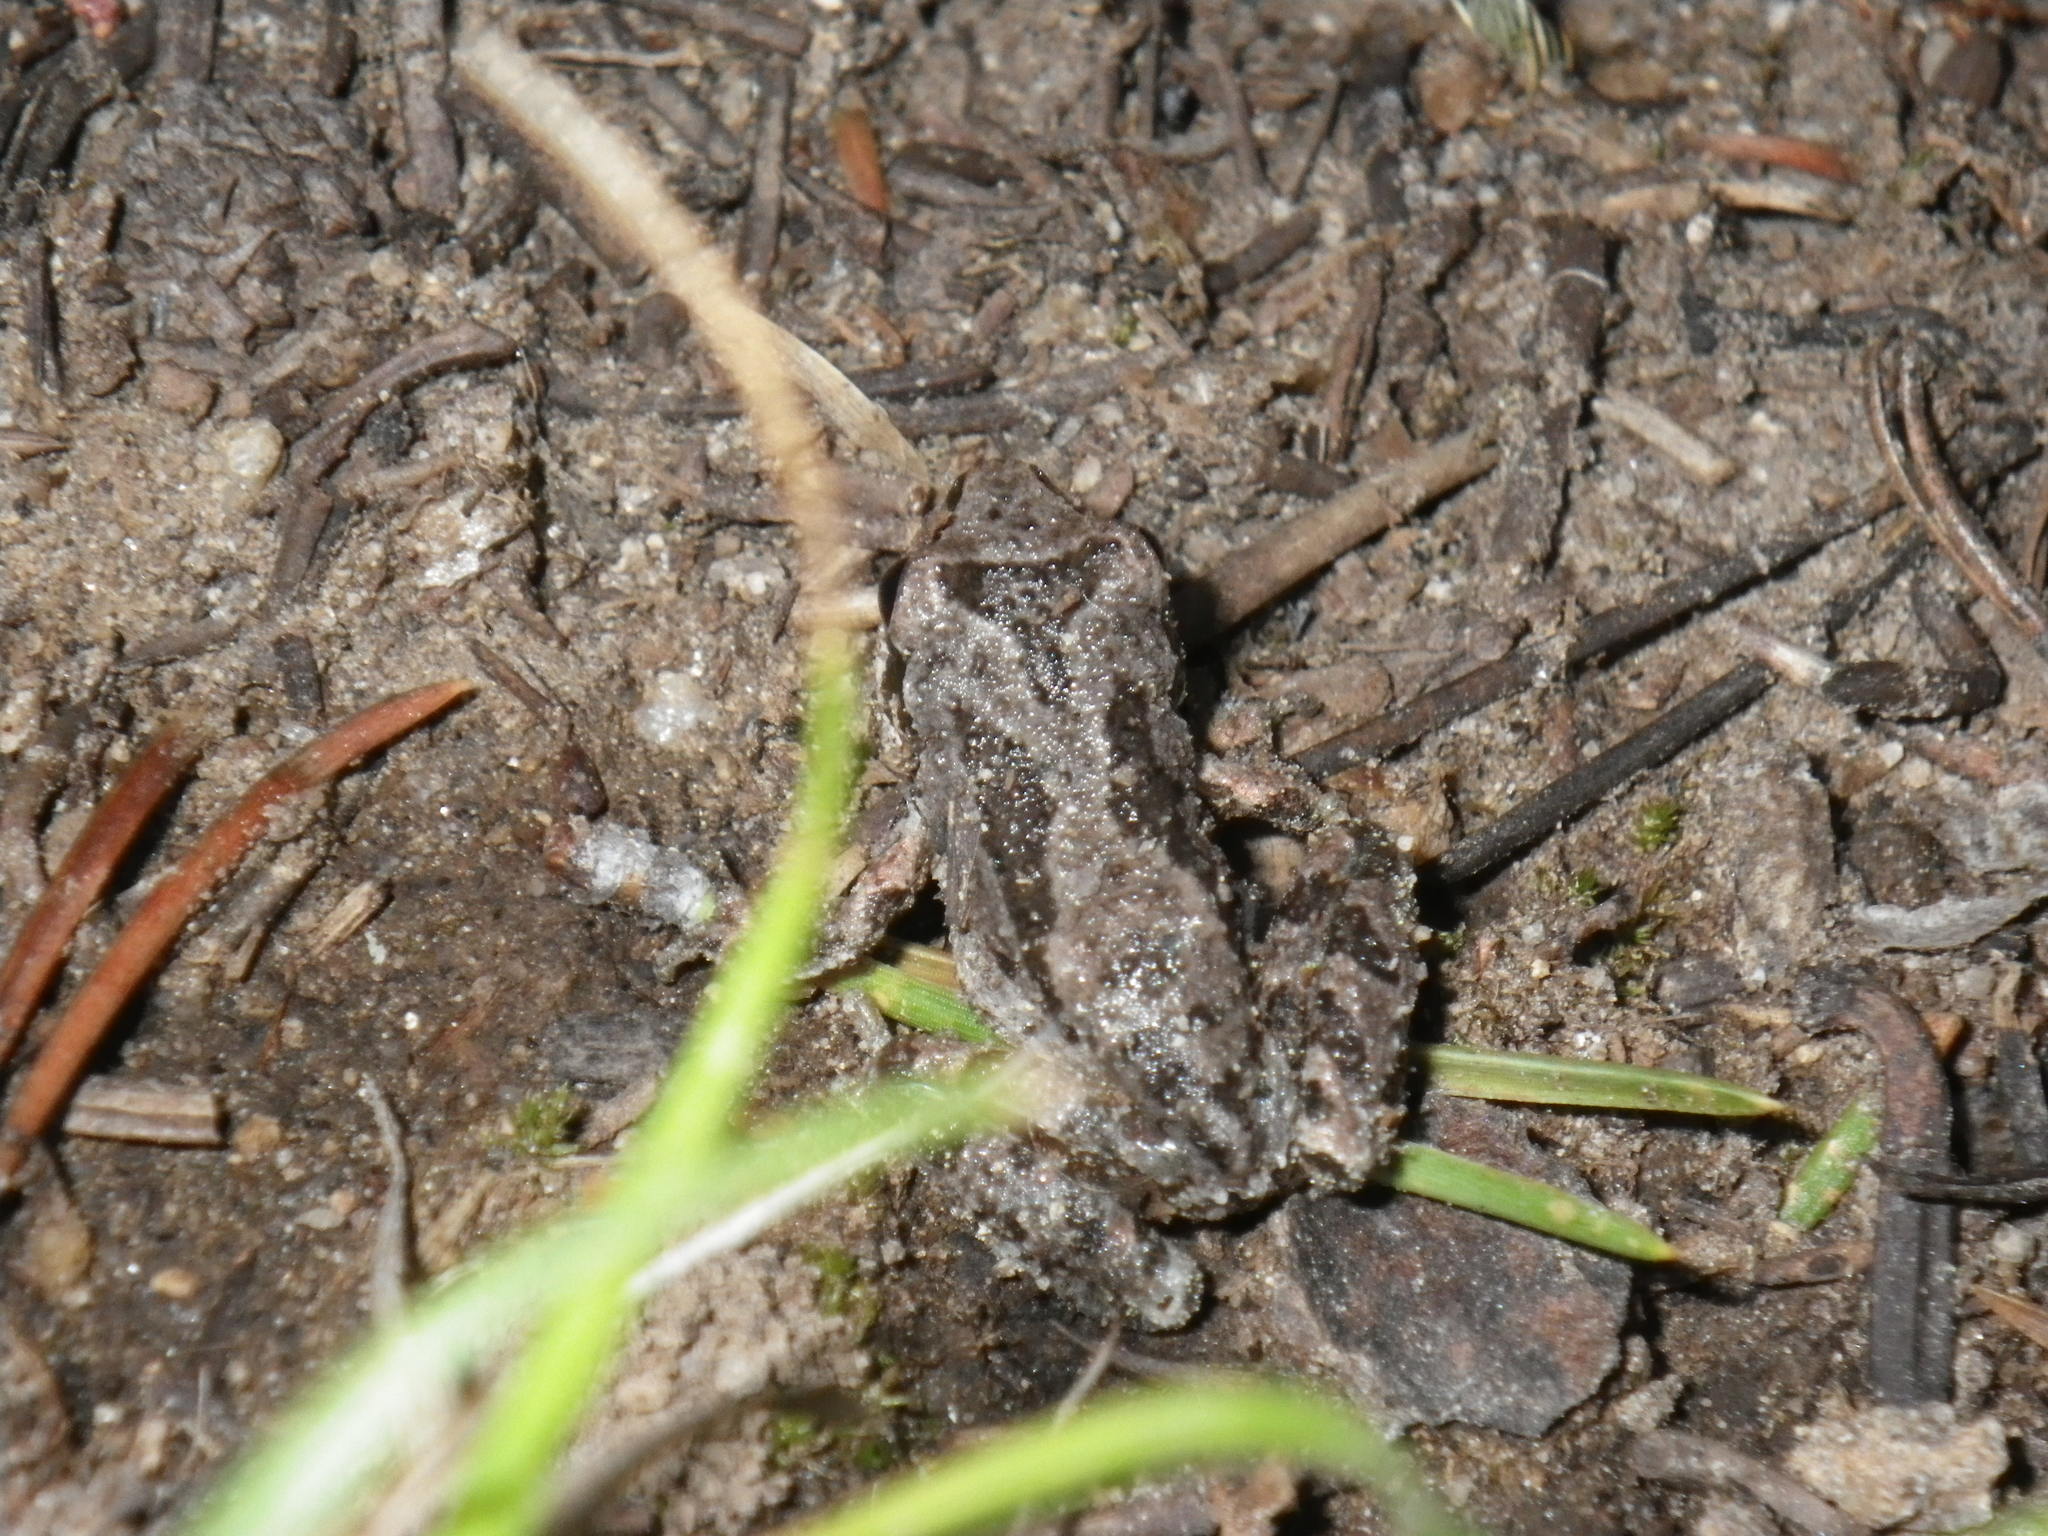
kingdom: Animalia
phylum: Chordata
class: Amphibia
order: Anura
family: Hylidae
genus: Pseudacris
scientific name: Pseudacris regilla
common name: Pacific chorus frog
